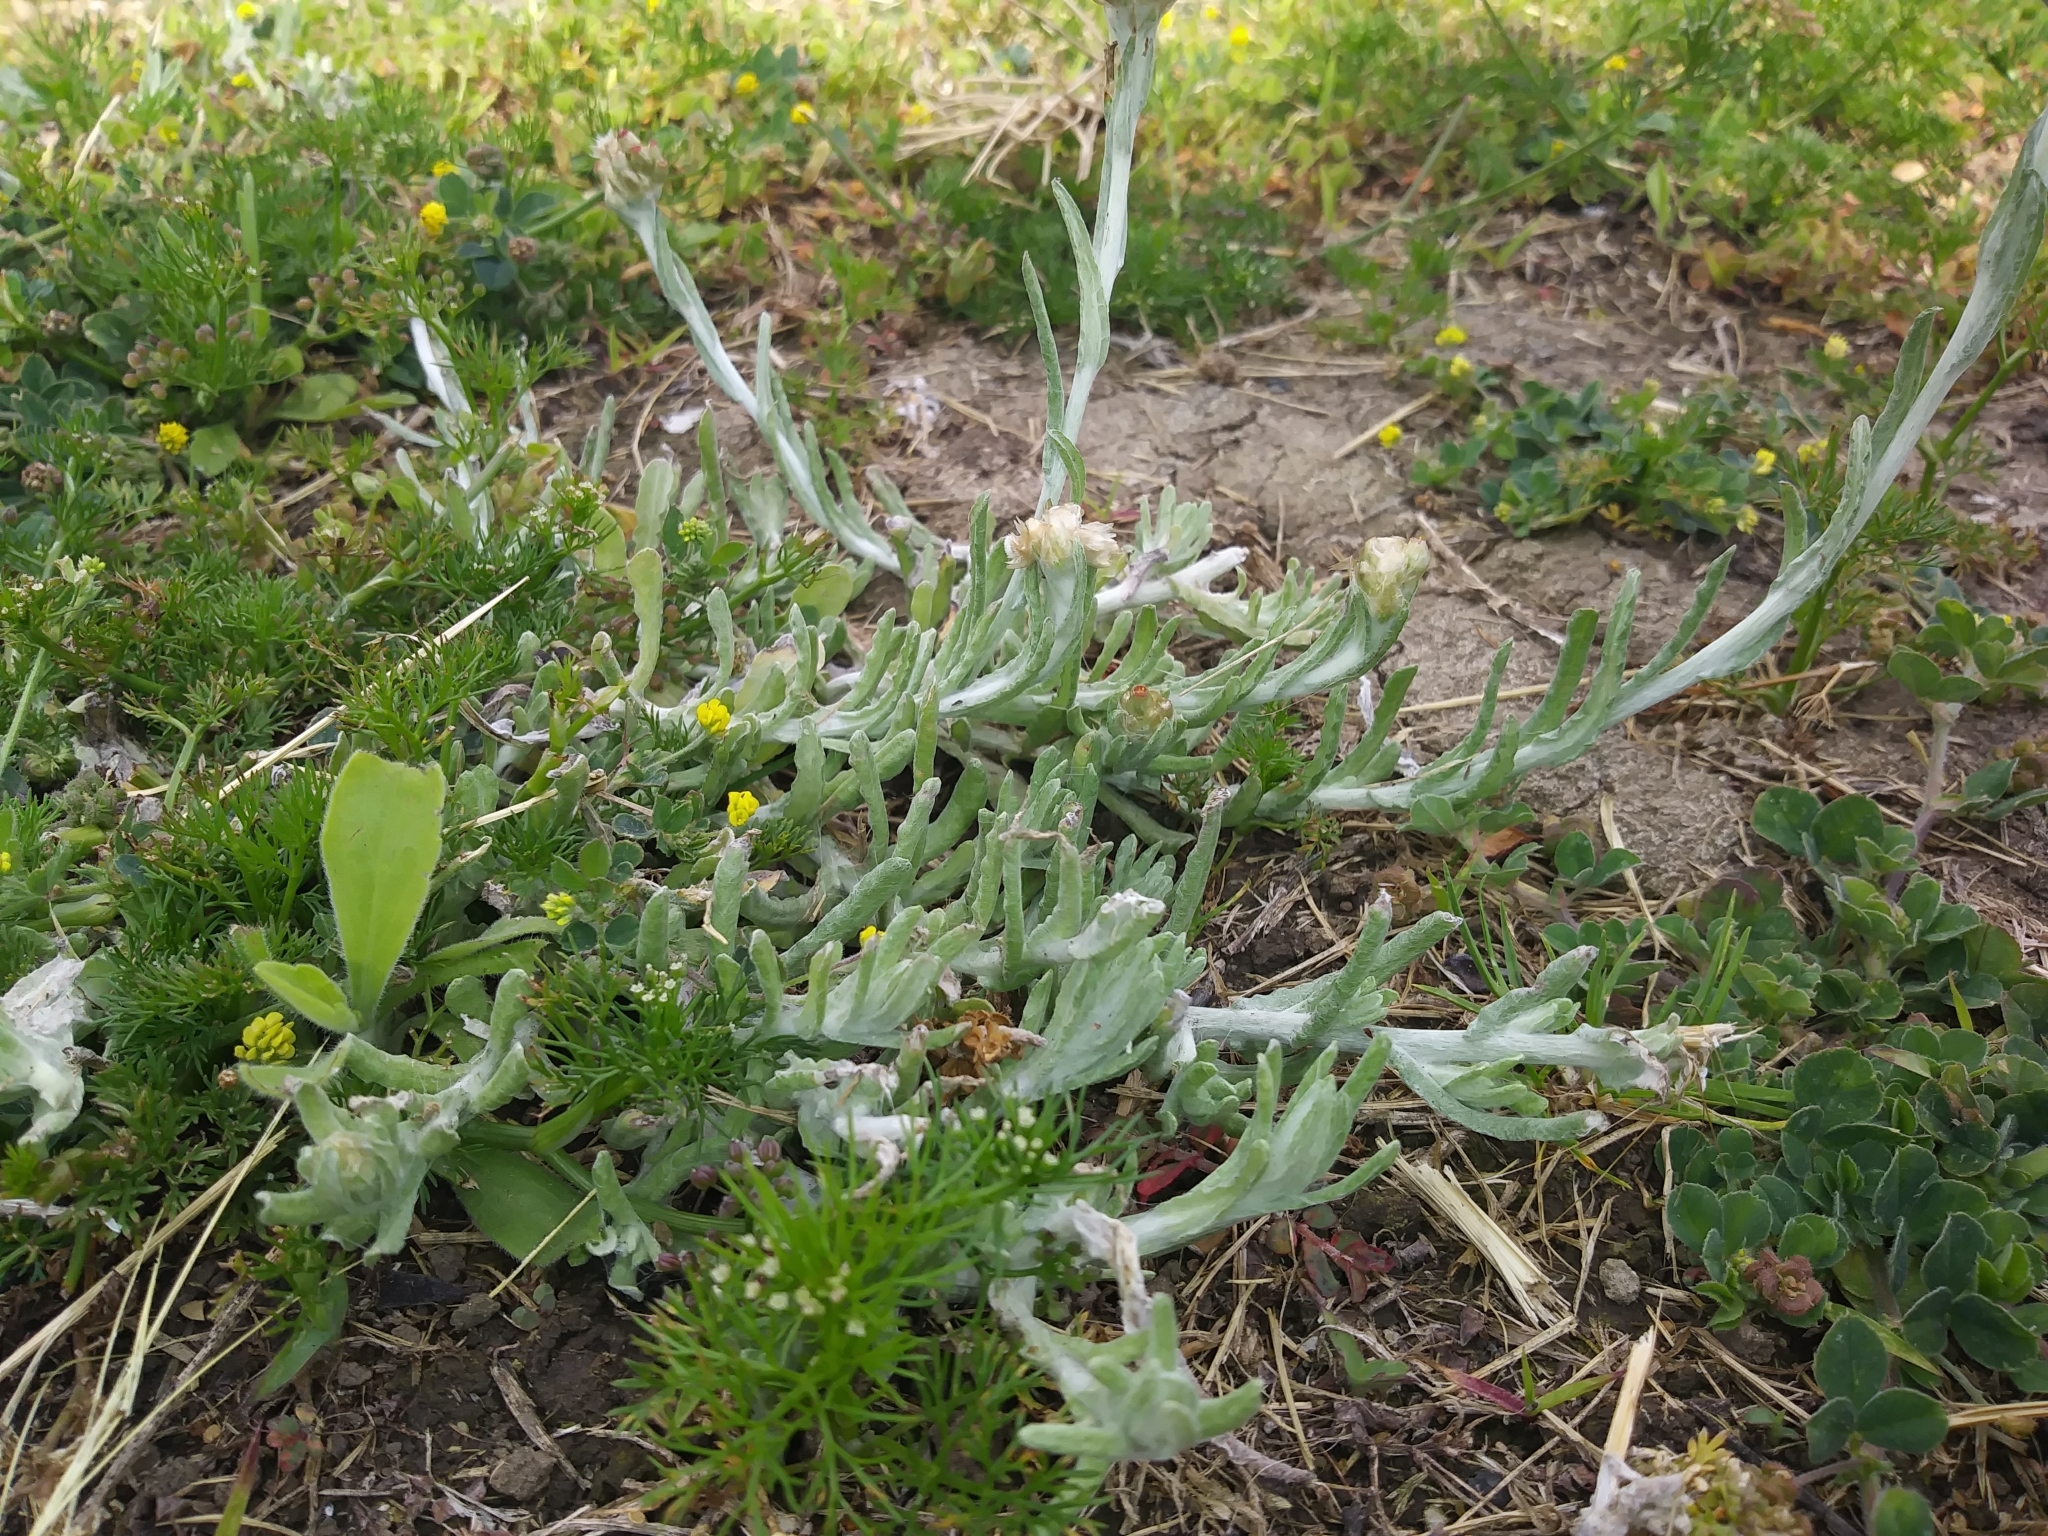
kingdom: Plantae
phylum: Tracheophyta
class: Magnoliopsida
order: Asterales
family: Asteraceae
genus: Helichrysum
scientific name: Helichrysum luteoalbum
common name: Daisy
